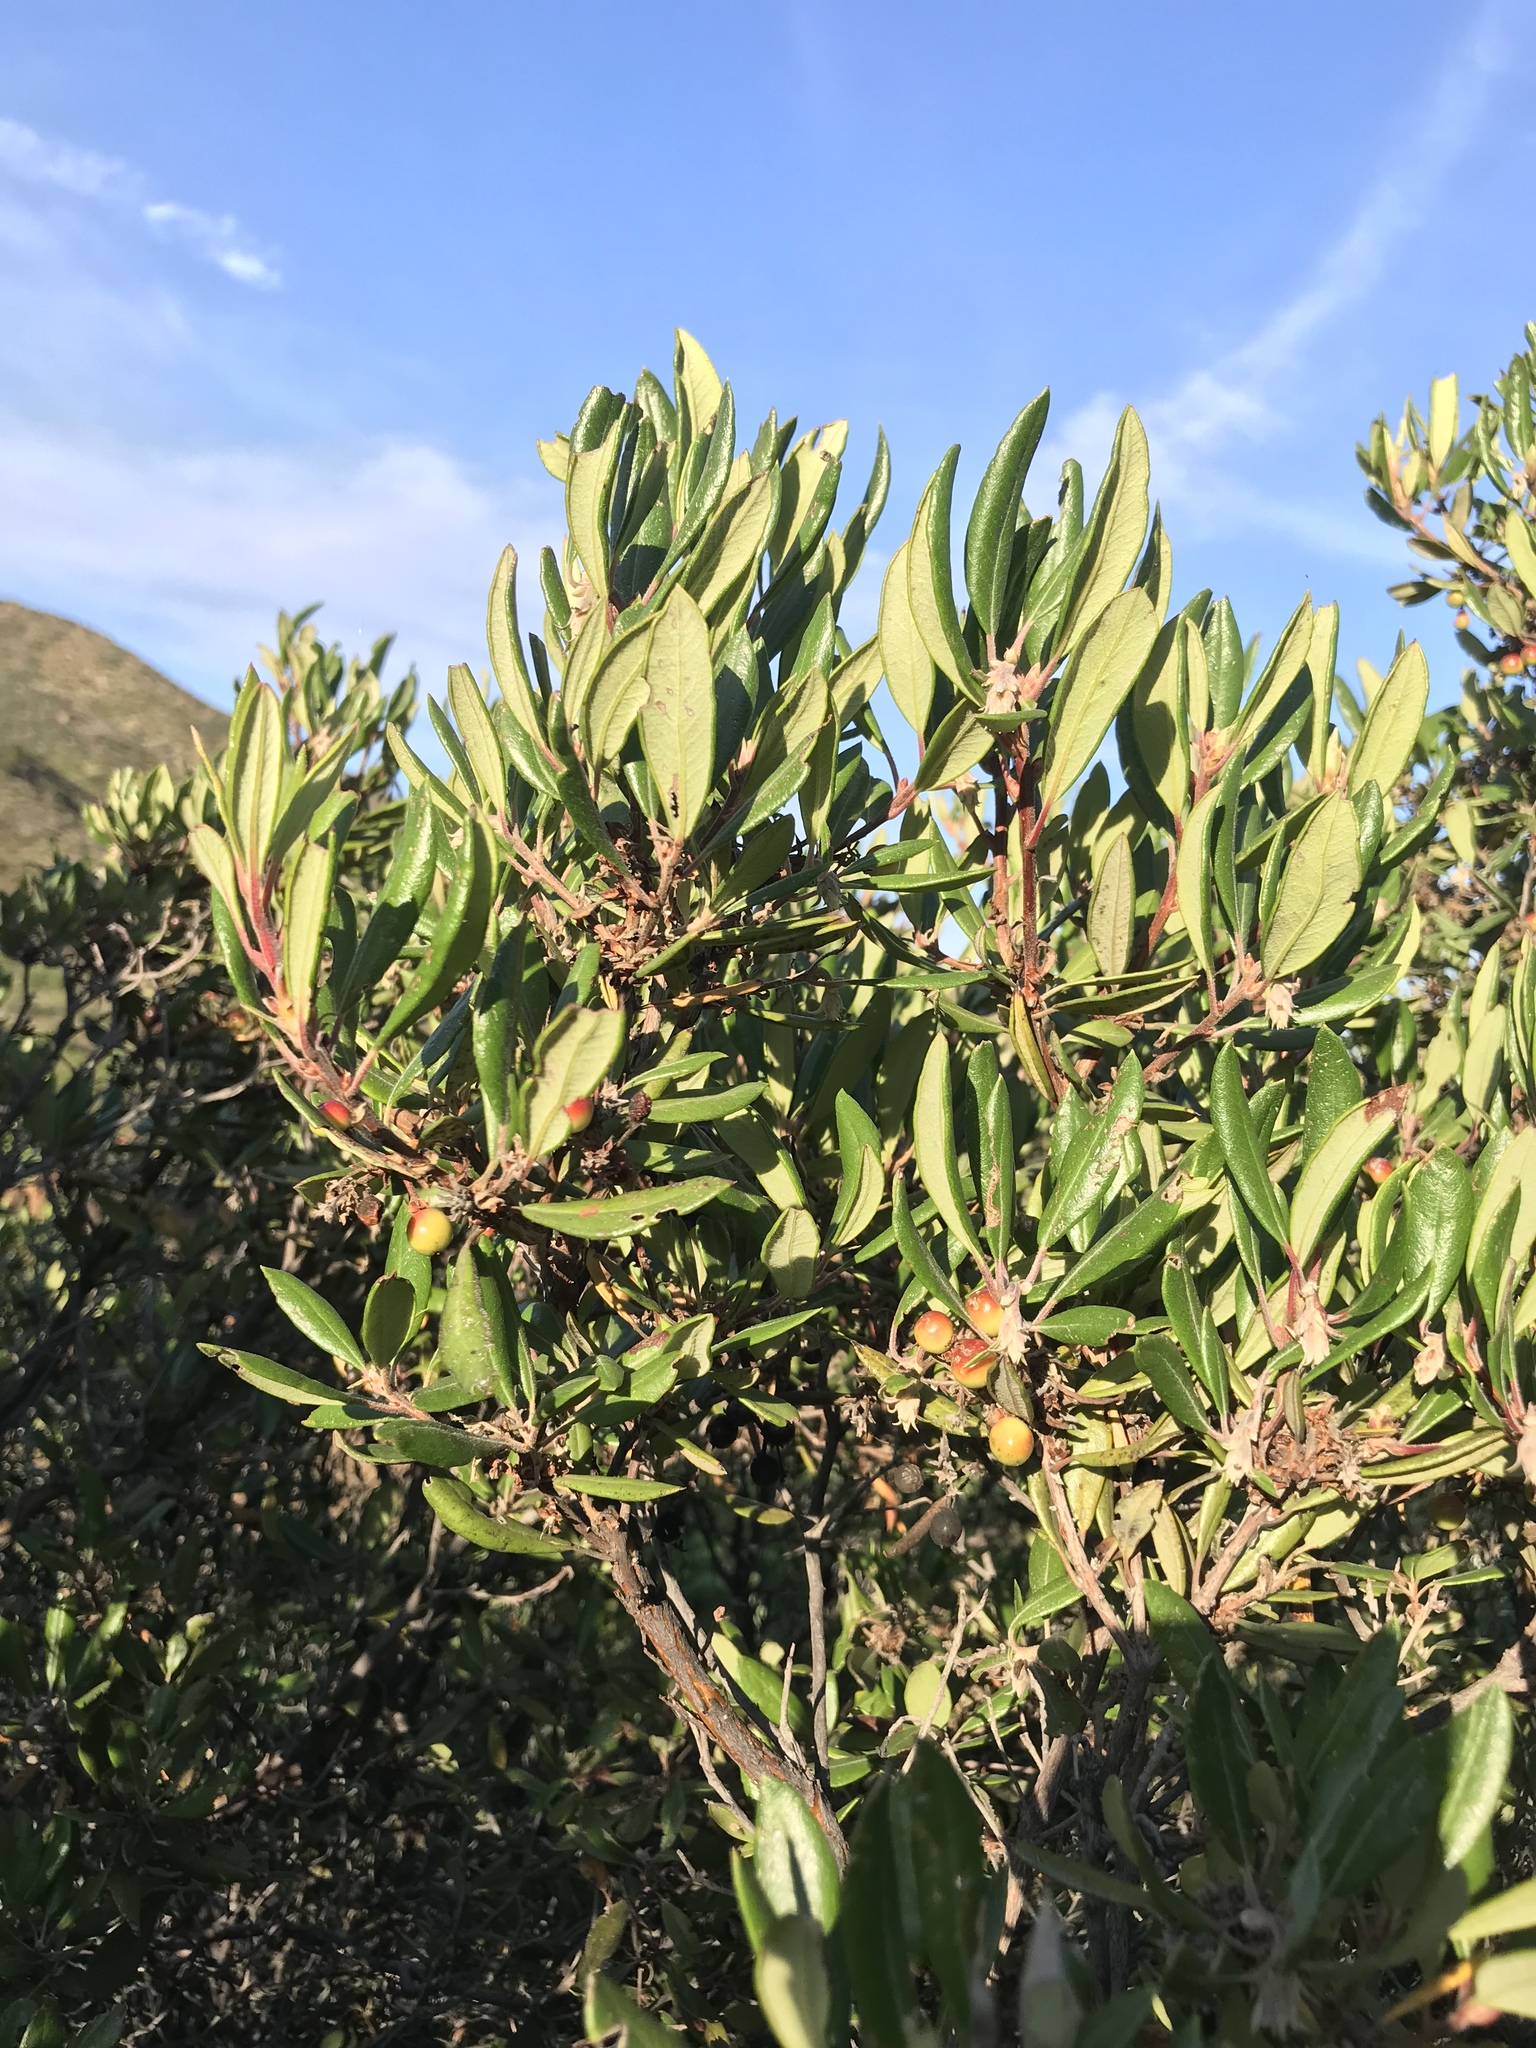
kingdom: Plantae
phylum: Tracheophyta
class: Magnoliopsida
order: Ericales
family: Ericaceae
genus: Arctostaphylos
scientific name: Arctostaphylos bicolor
